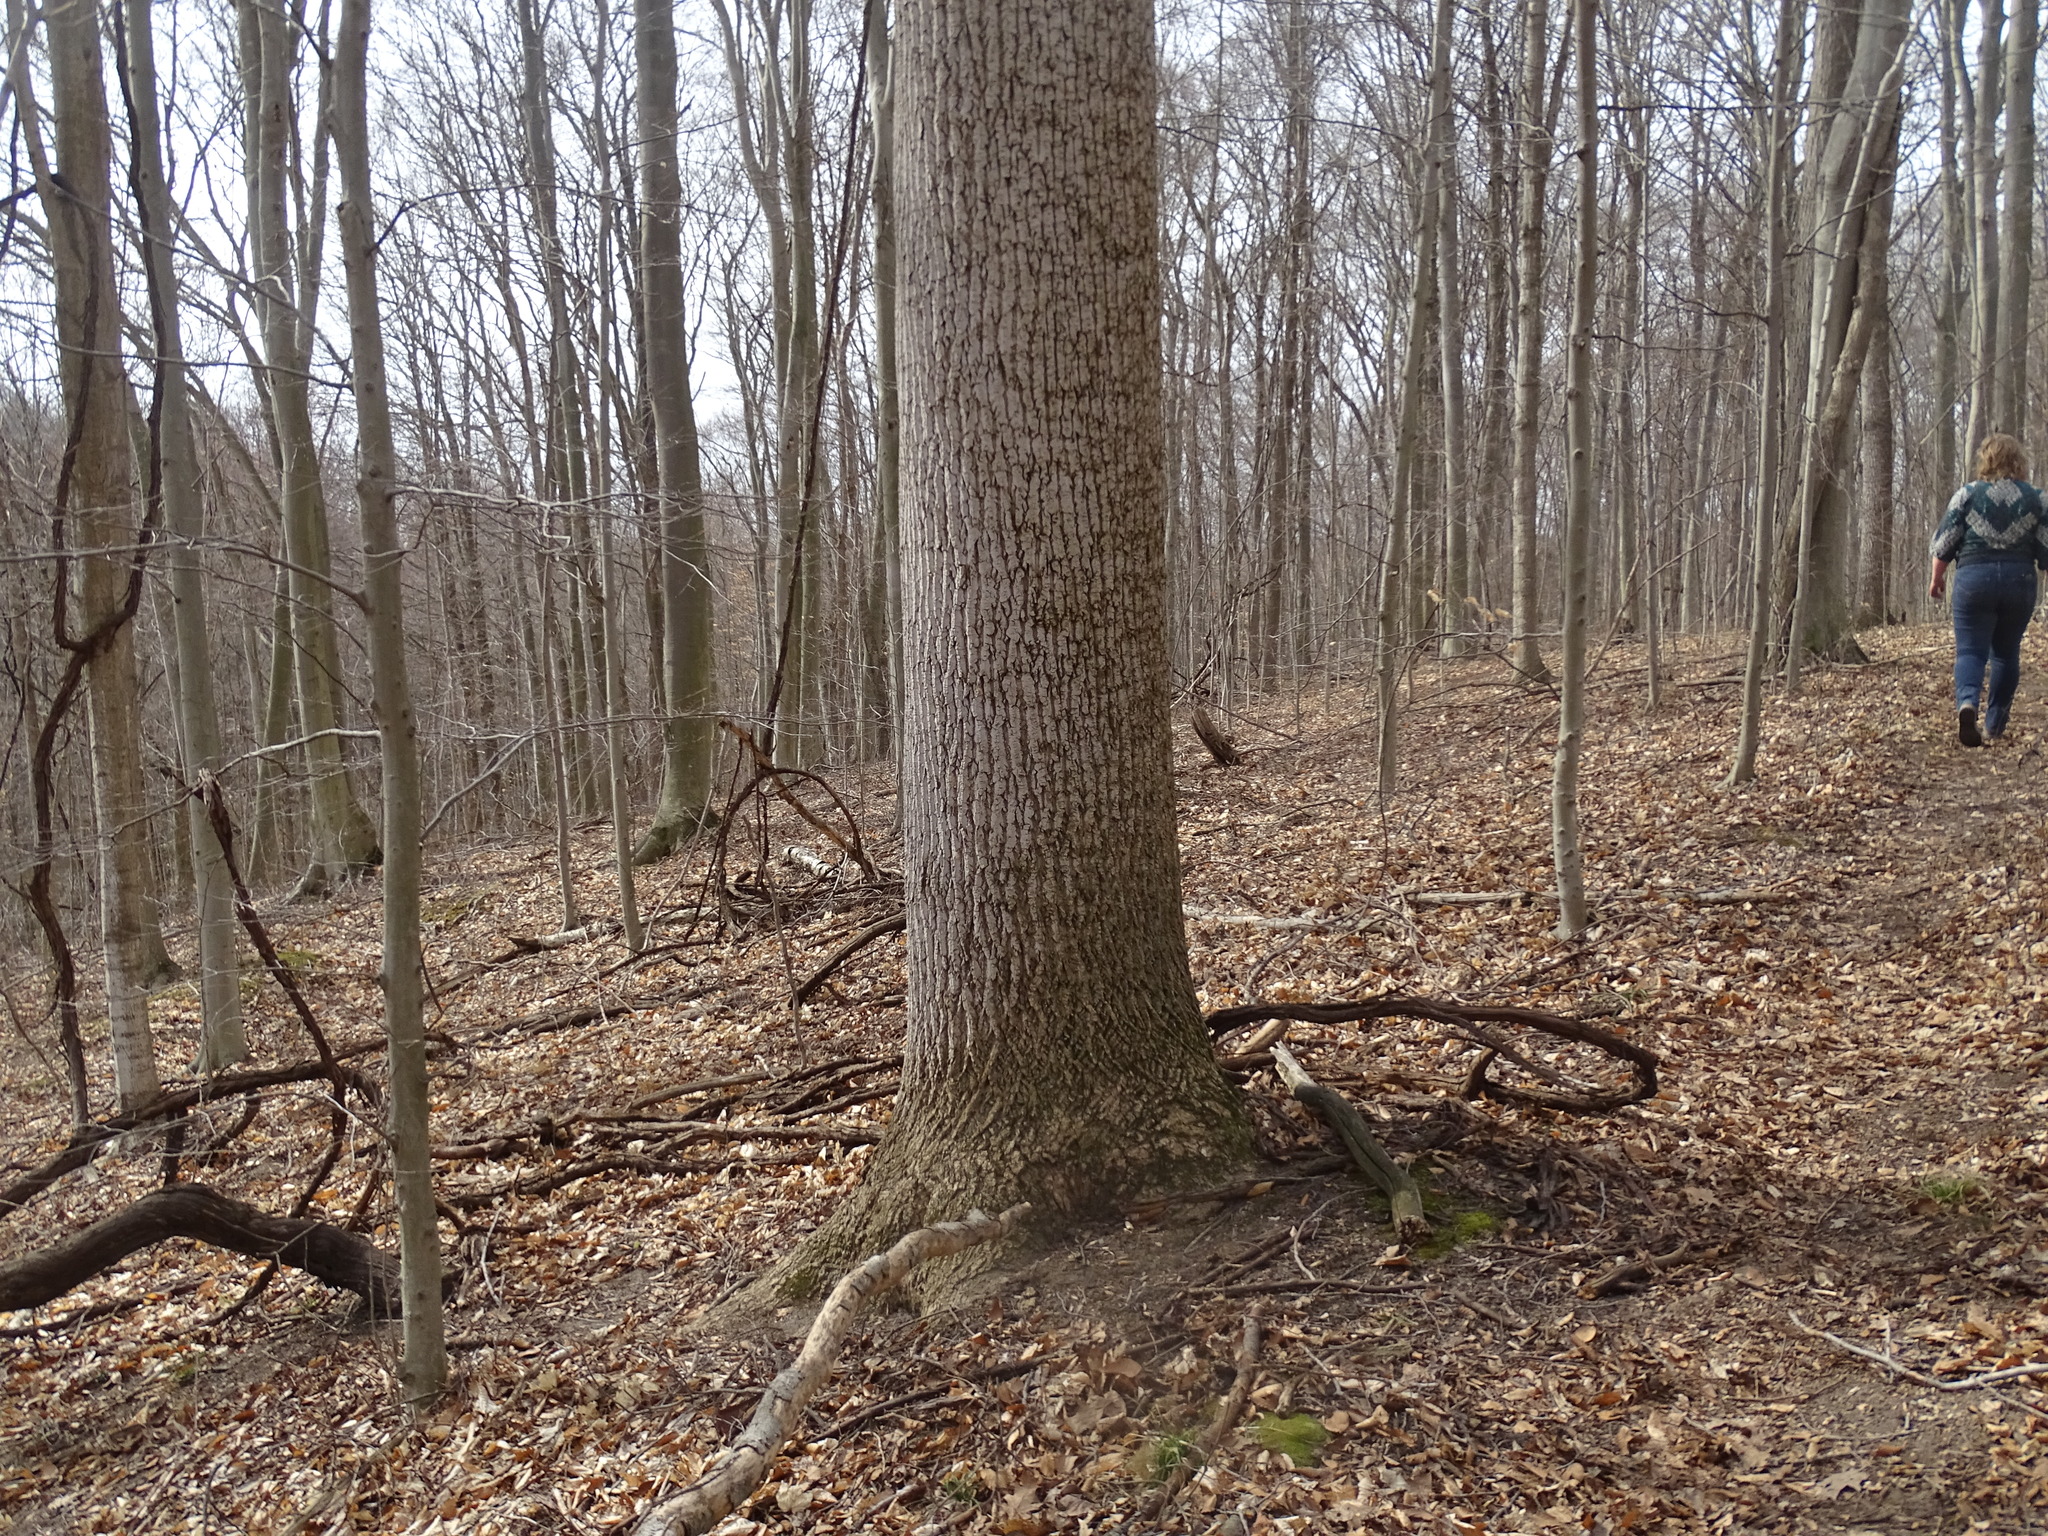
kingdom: Plantae
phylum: Tracheophyta
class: Magnoliopsida
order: Magnoliales
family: Magnoliaceae
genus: Liriodendron
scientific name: Liriodendron tulipifera
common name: Tulip tree
